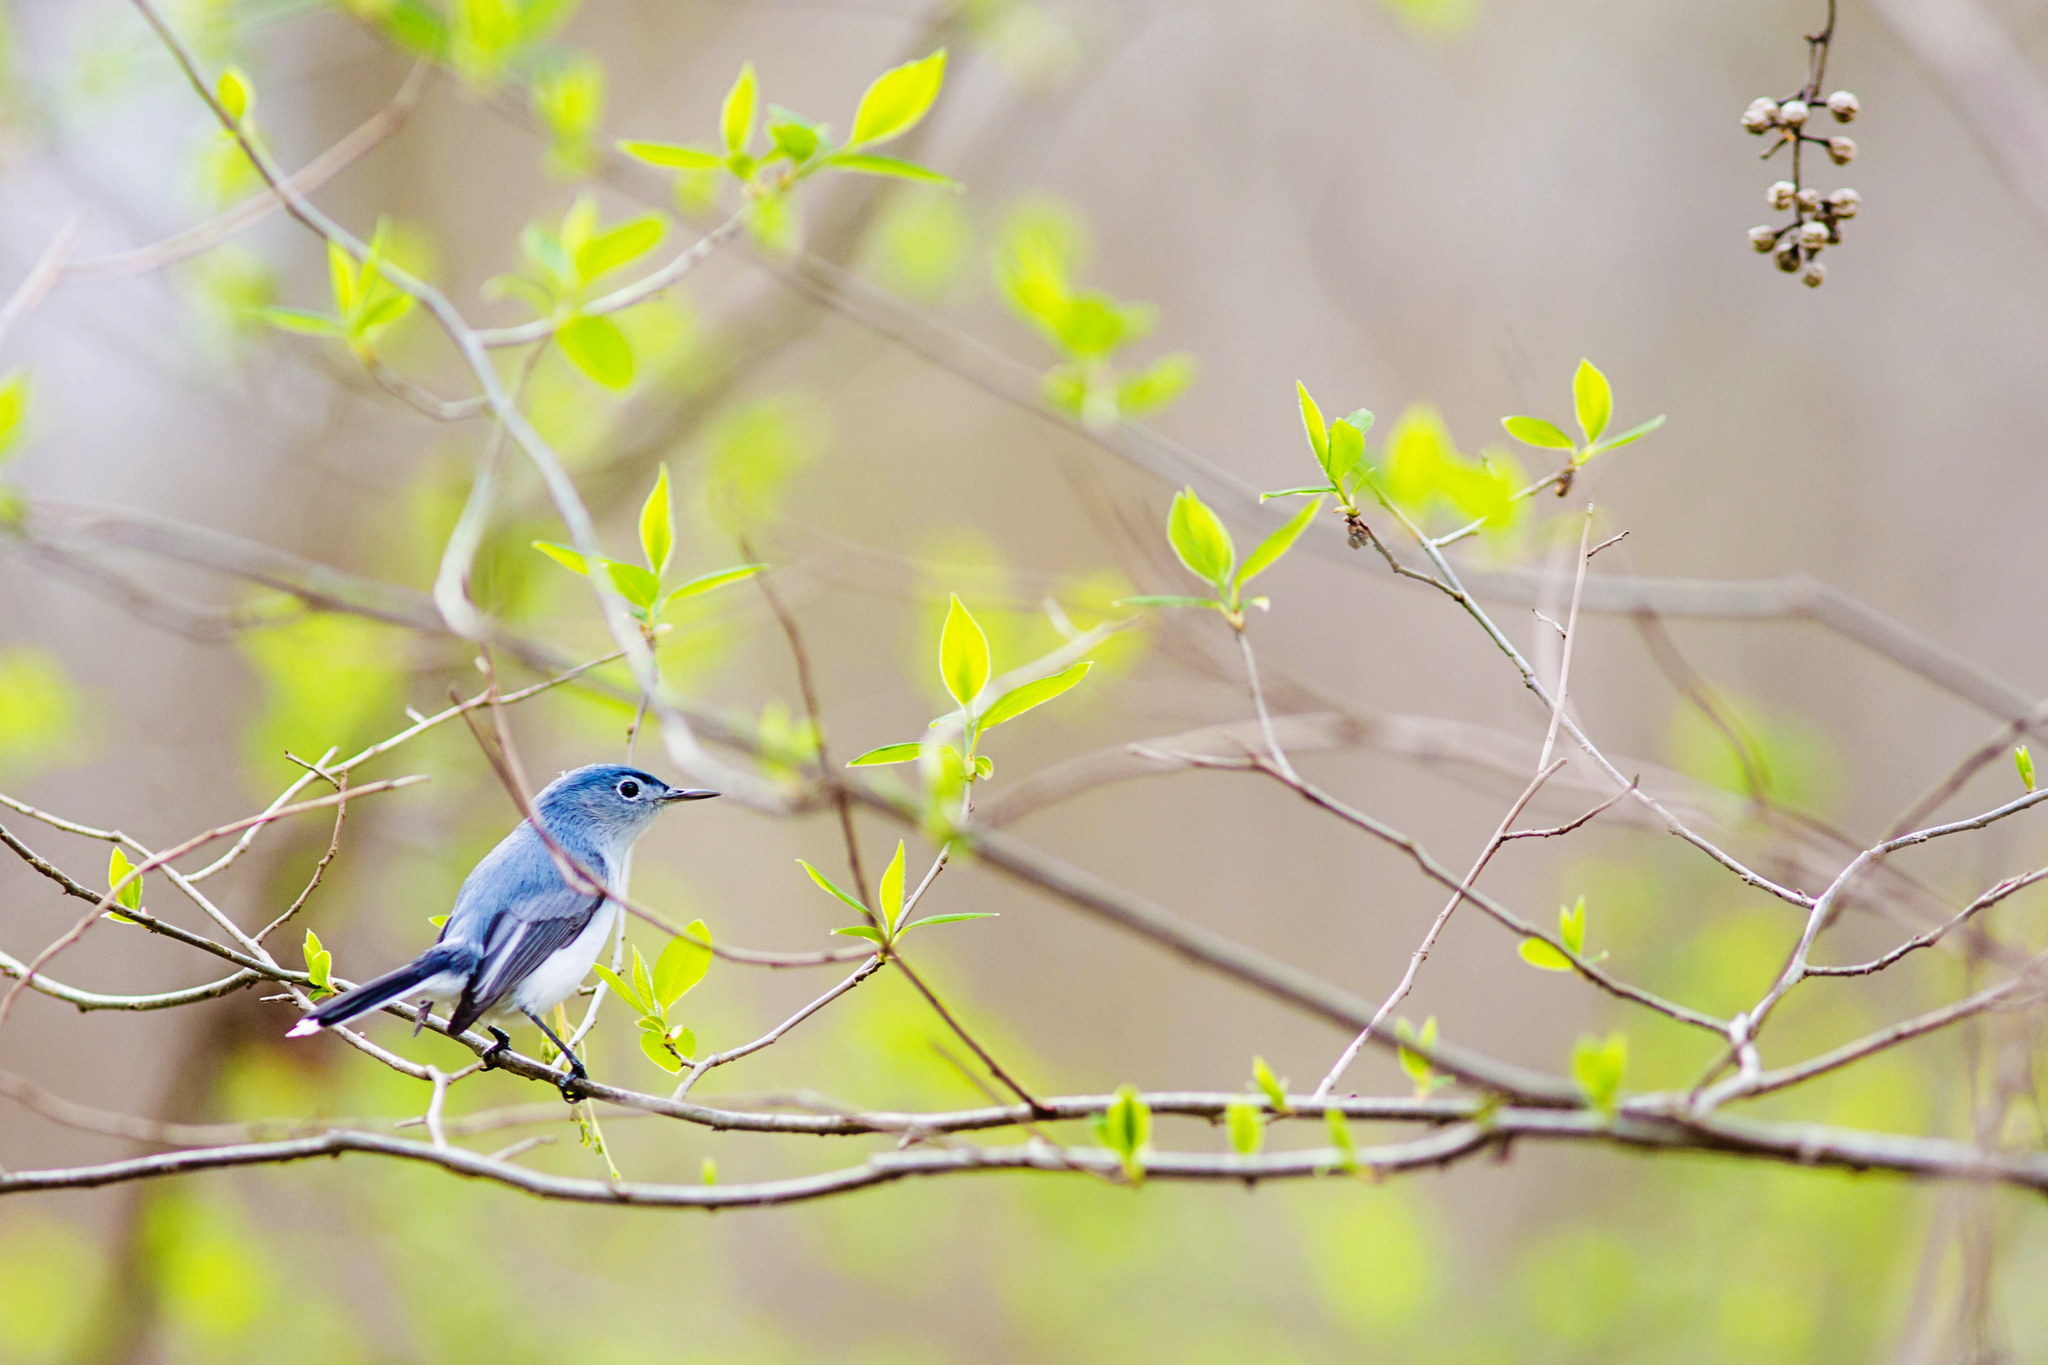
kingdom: Animalia
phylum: Chordata
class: Aves
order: Passeriformes
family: Polioptilidae
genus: Polioptila
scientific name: Polioptila caerulea
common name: Blue-gray gnatcatcher
